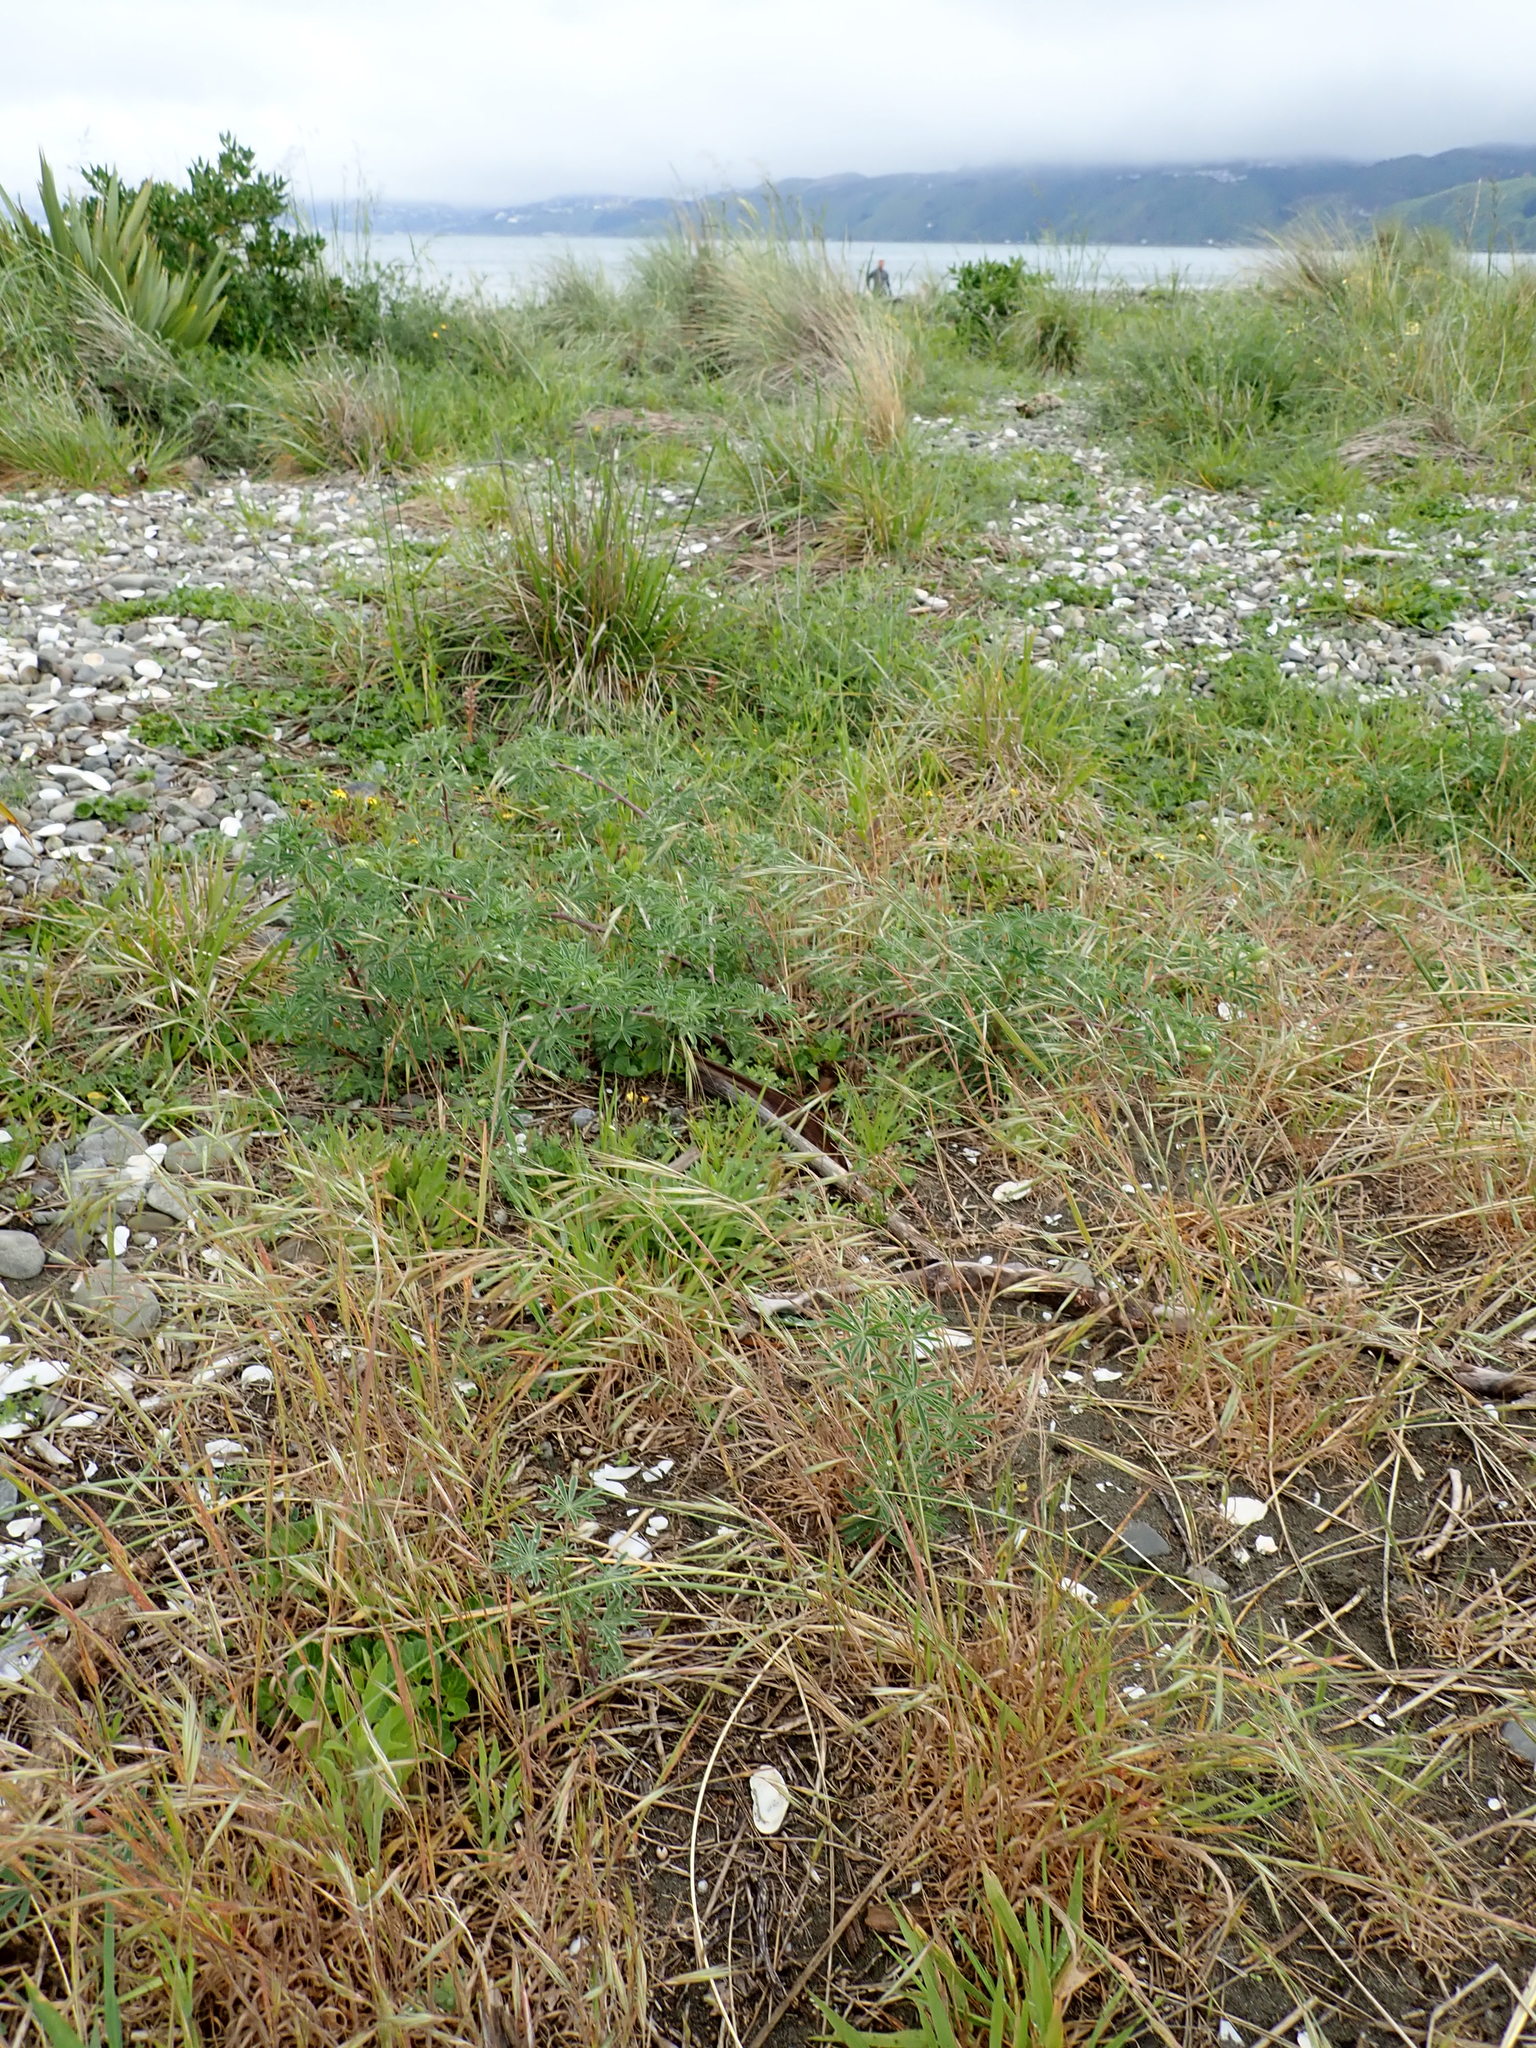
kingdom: Plantae
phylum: Tracheophyta
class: Magnoliopsida
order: Fabales
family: Fabaceae
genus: Lupinus
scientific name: Lupinus arboreus
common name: Yellow bush lupine
